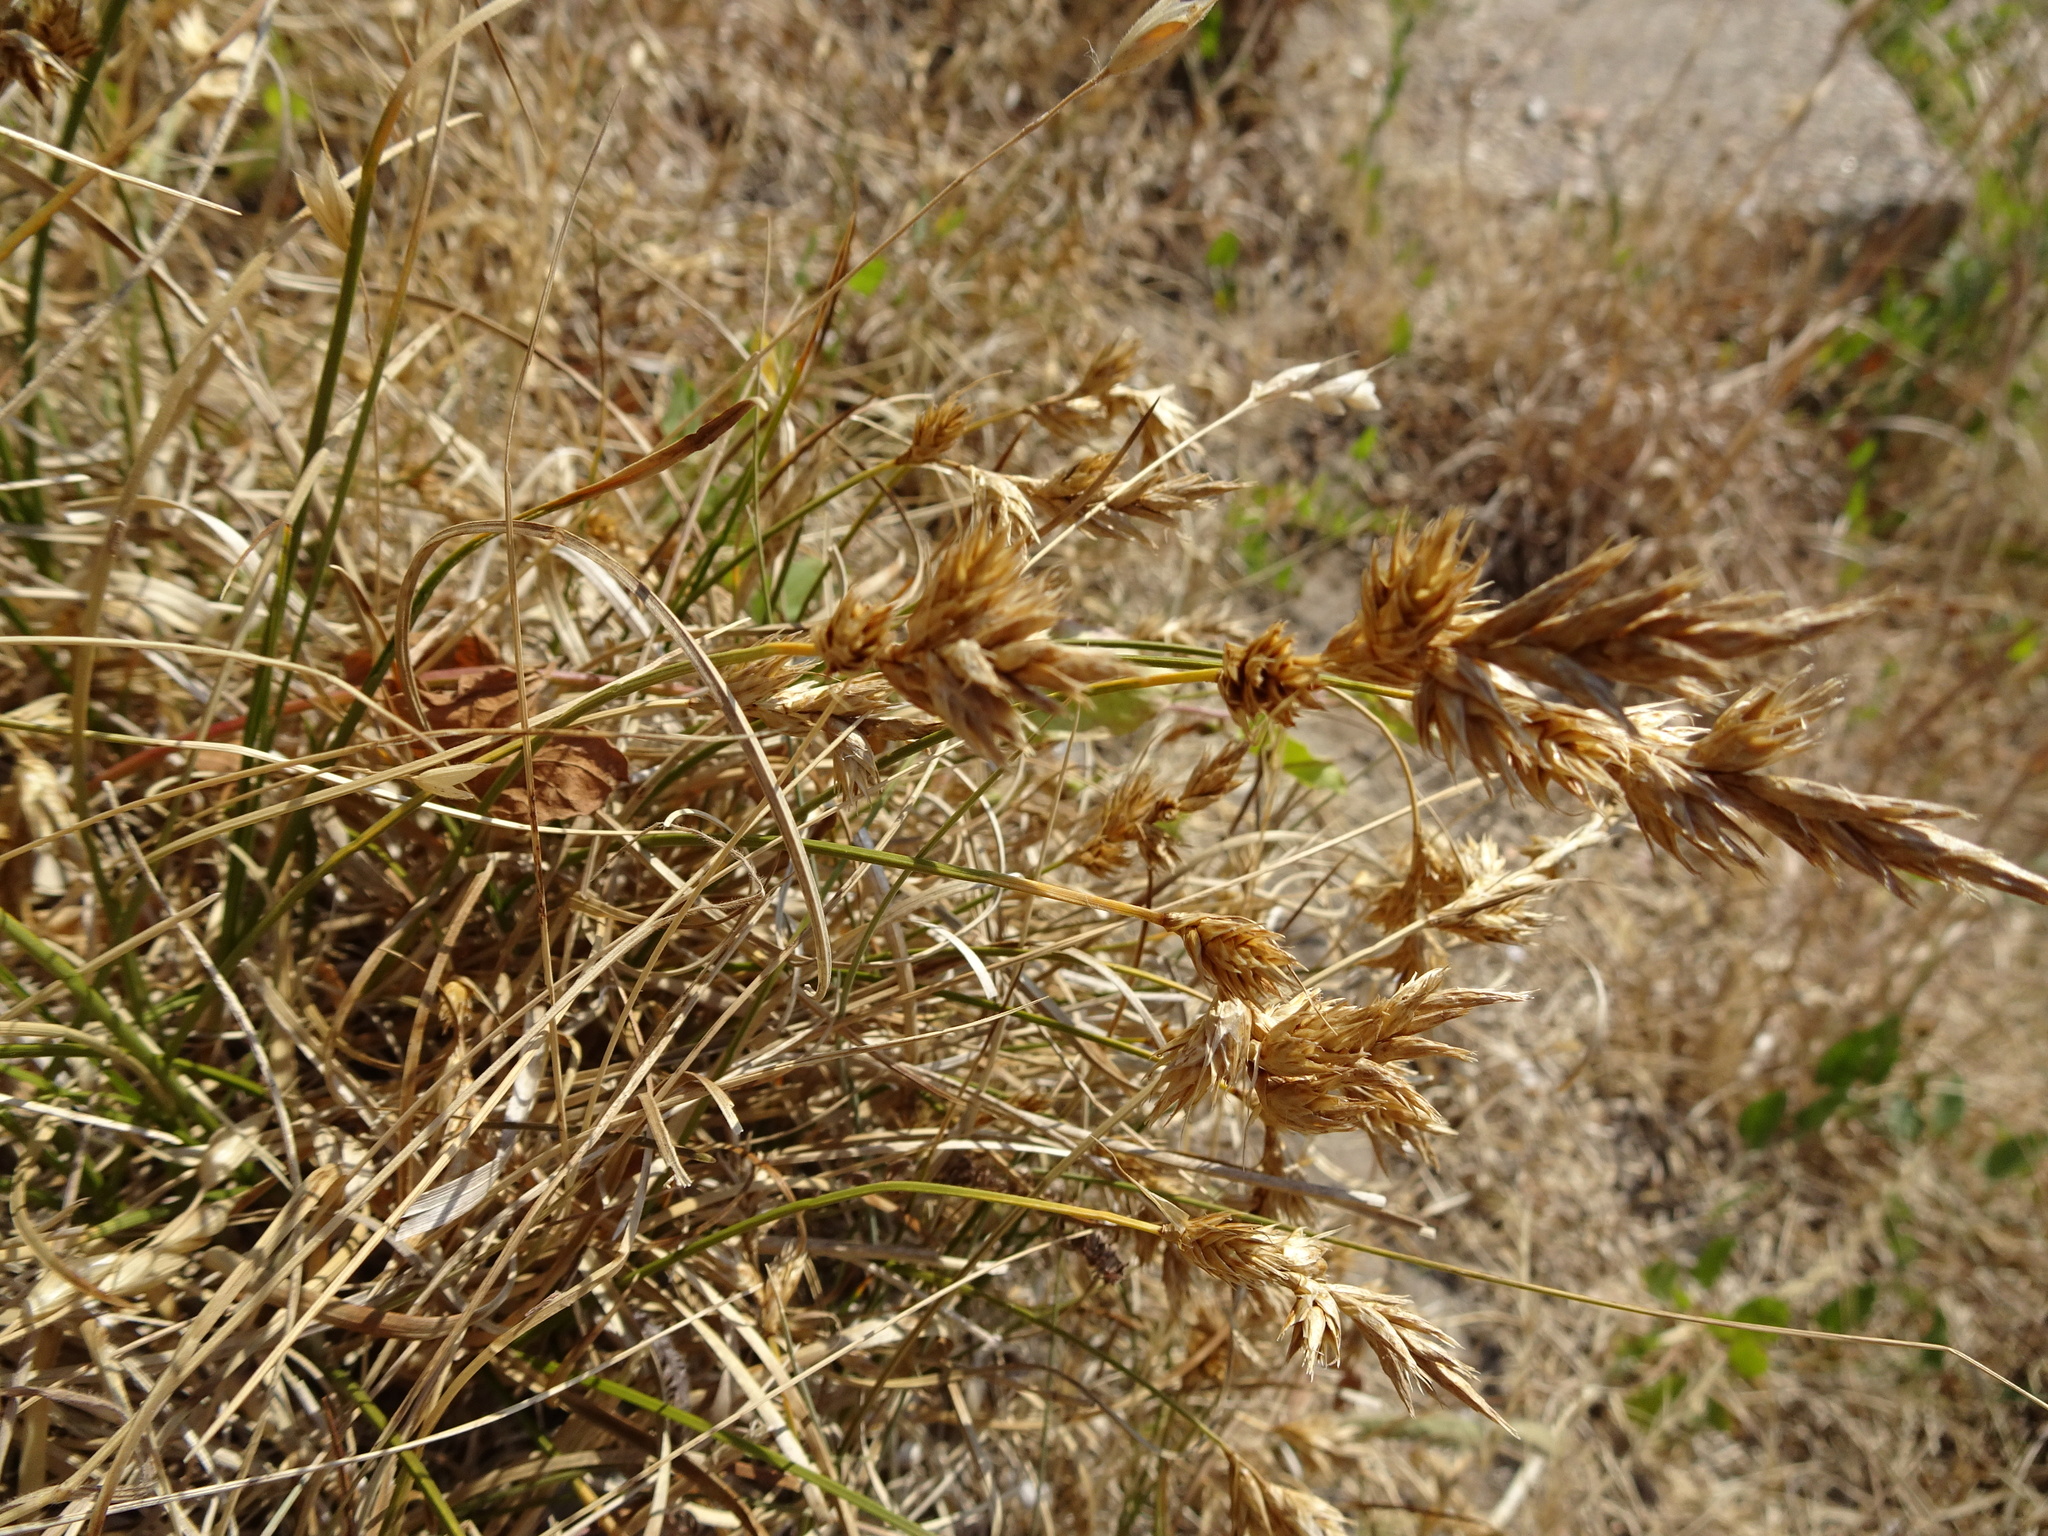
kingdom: Plantae
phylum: Tracheophyta
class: Liliopsida
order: Poales
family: Cyperaceae
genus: Carex
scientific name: Carex arenaria
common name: Sand sedge
